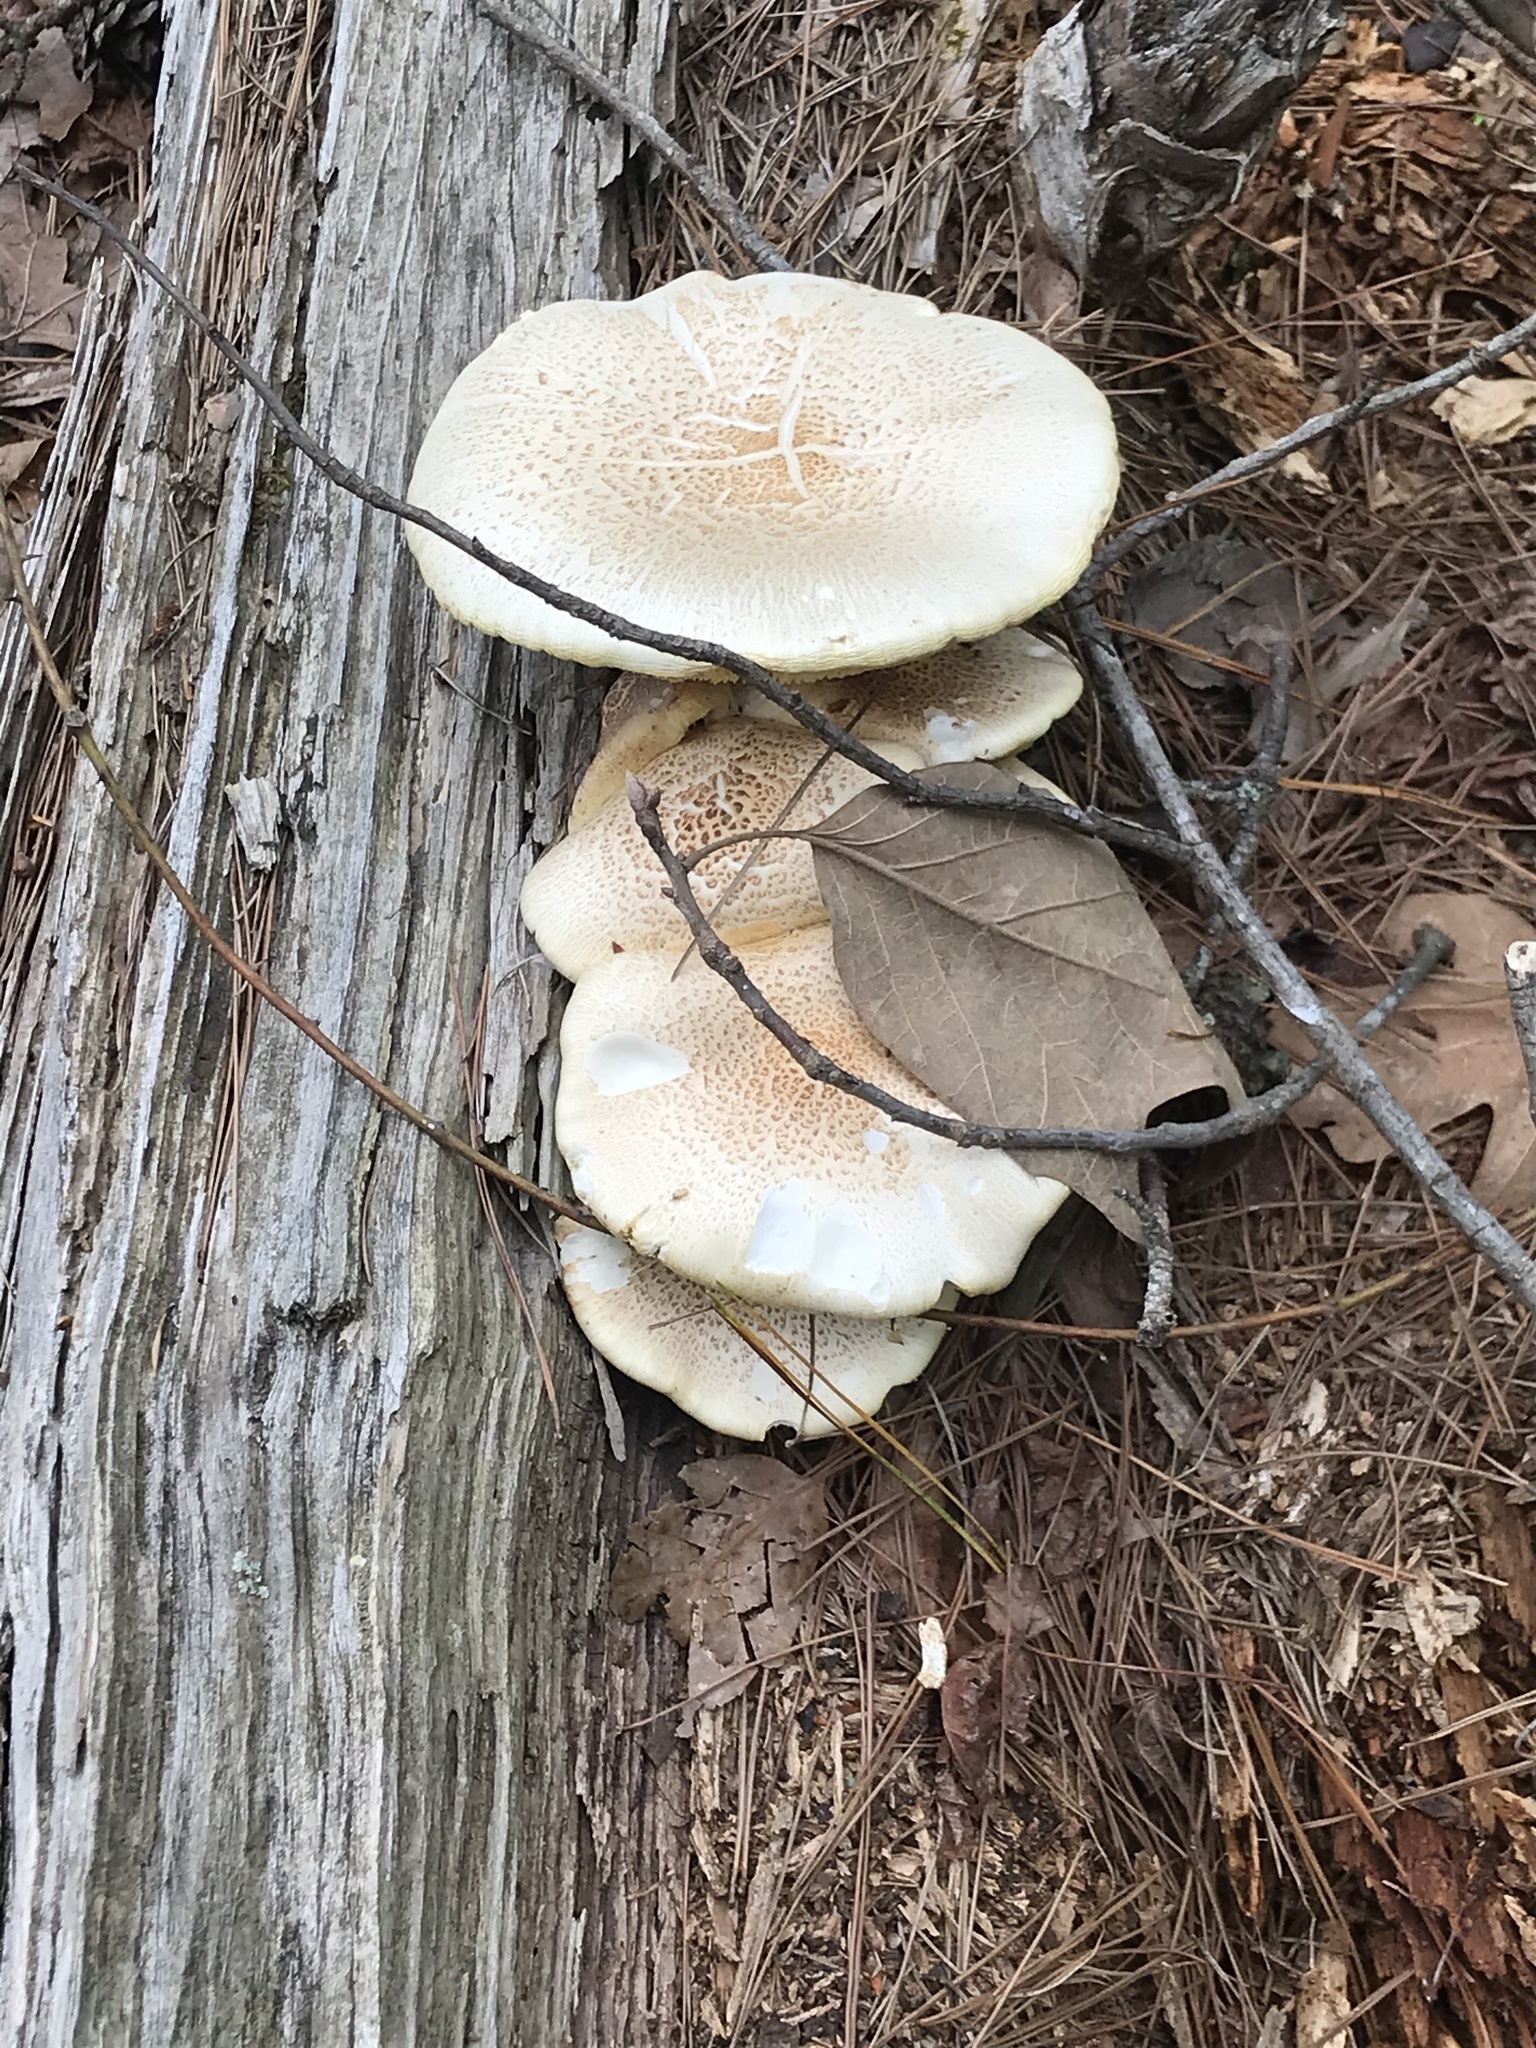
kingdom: Fungi
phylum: Basidiomycota
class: Agaricomycetes
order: Gloeophyllales
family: Gloeophyllaceae
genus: Neolentinus
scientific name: Neolentinus lepideus
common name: Scaly sawgill
